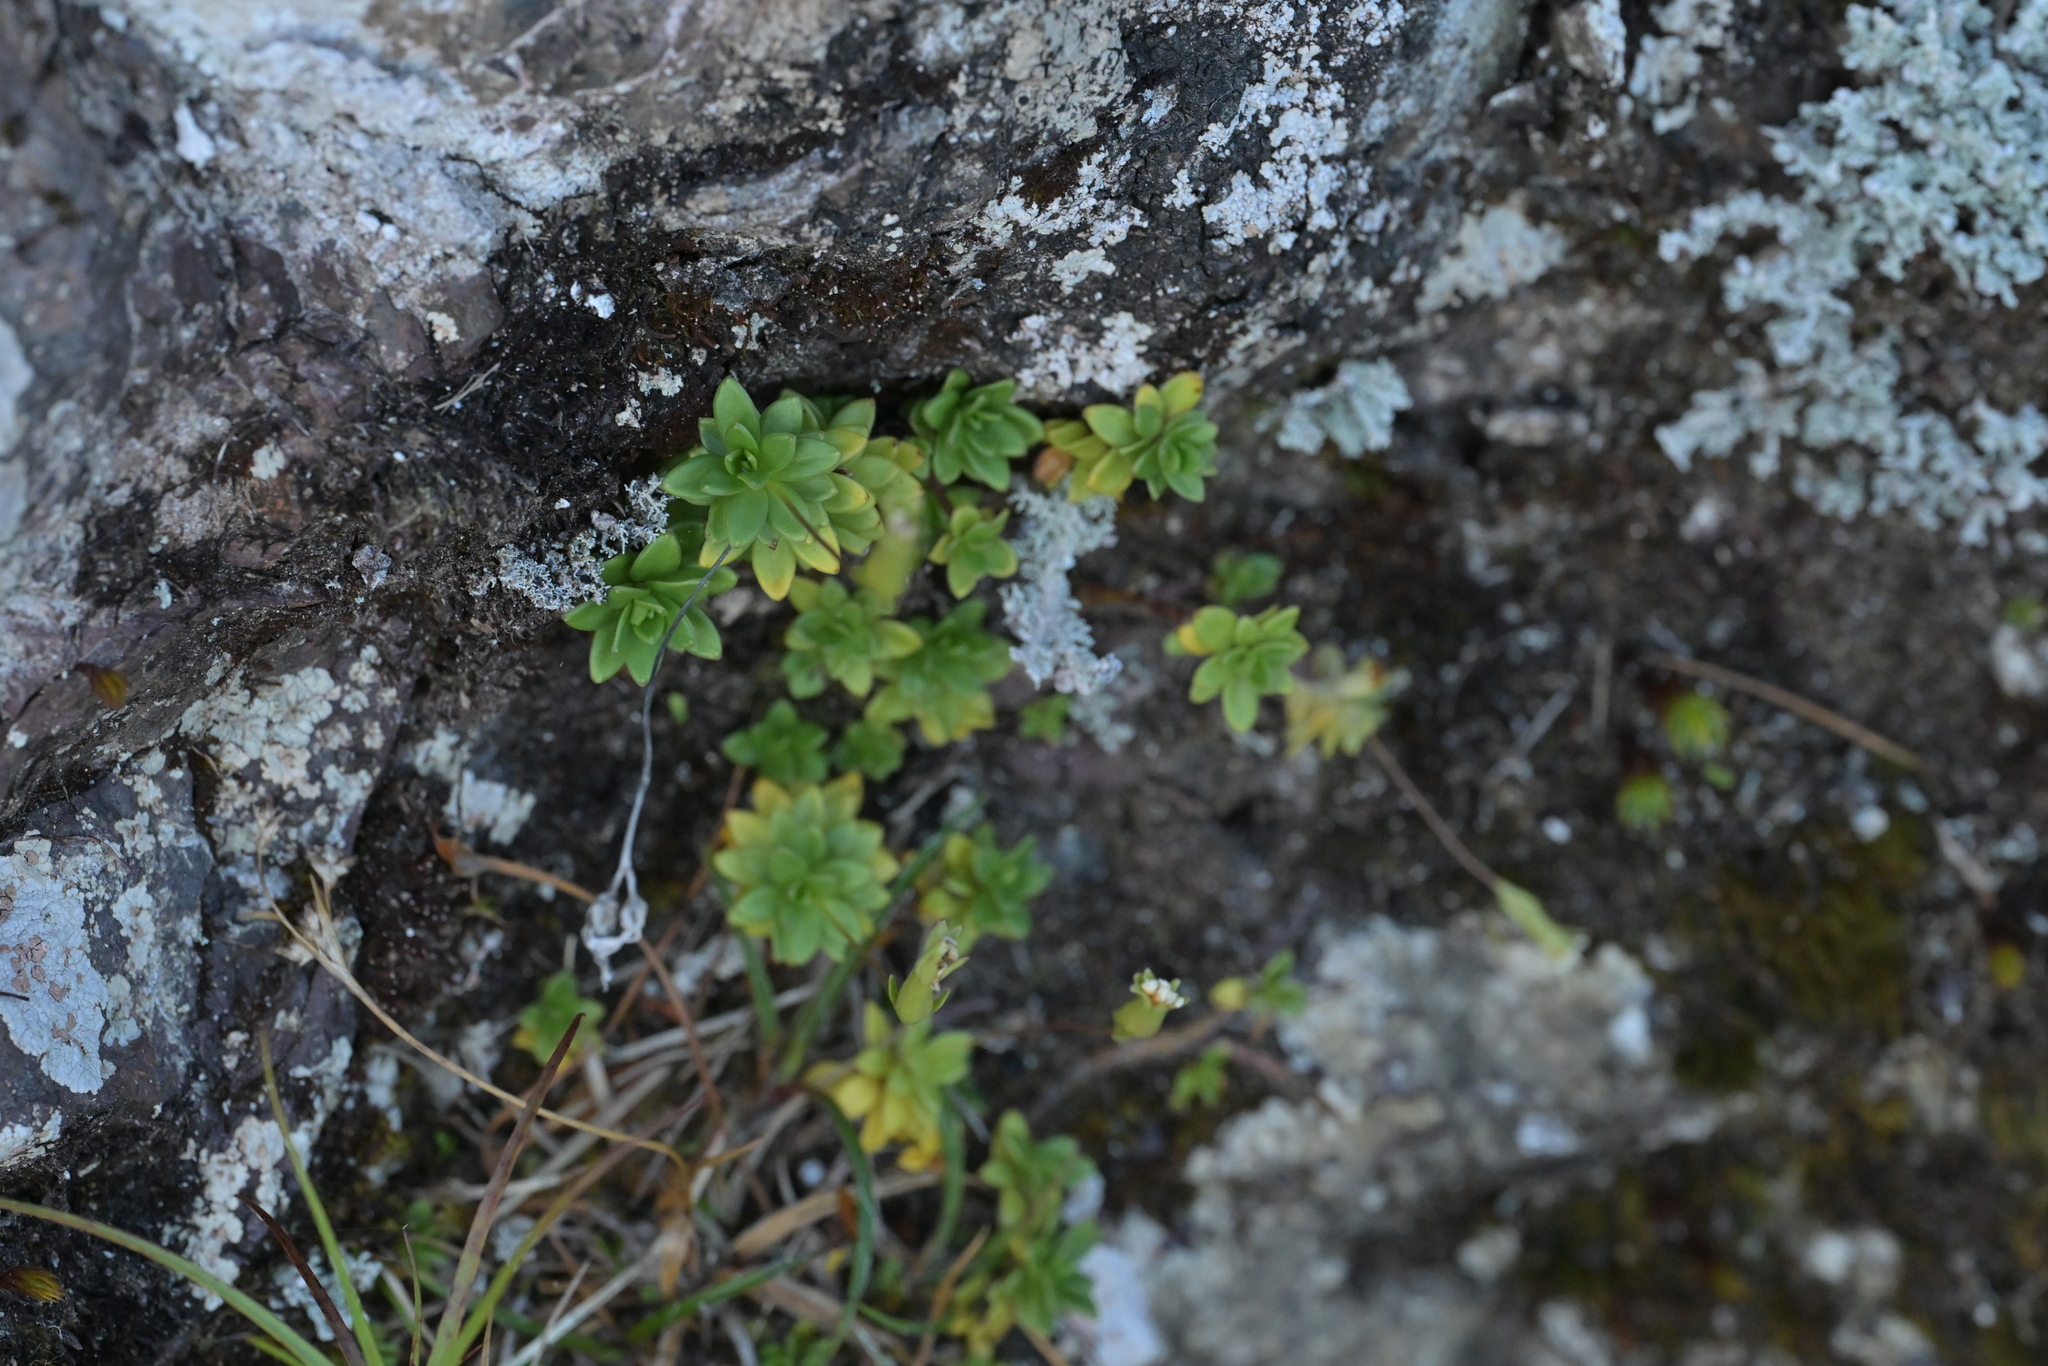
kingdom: Plantae
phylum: Tracheophyta
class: Magnoliopsida
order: Asterales
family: Stylidiaceae
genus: Forstera
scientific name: Forstera tenella
